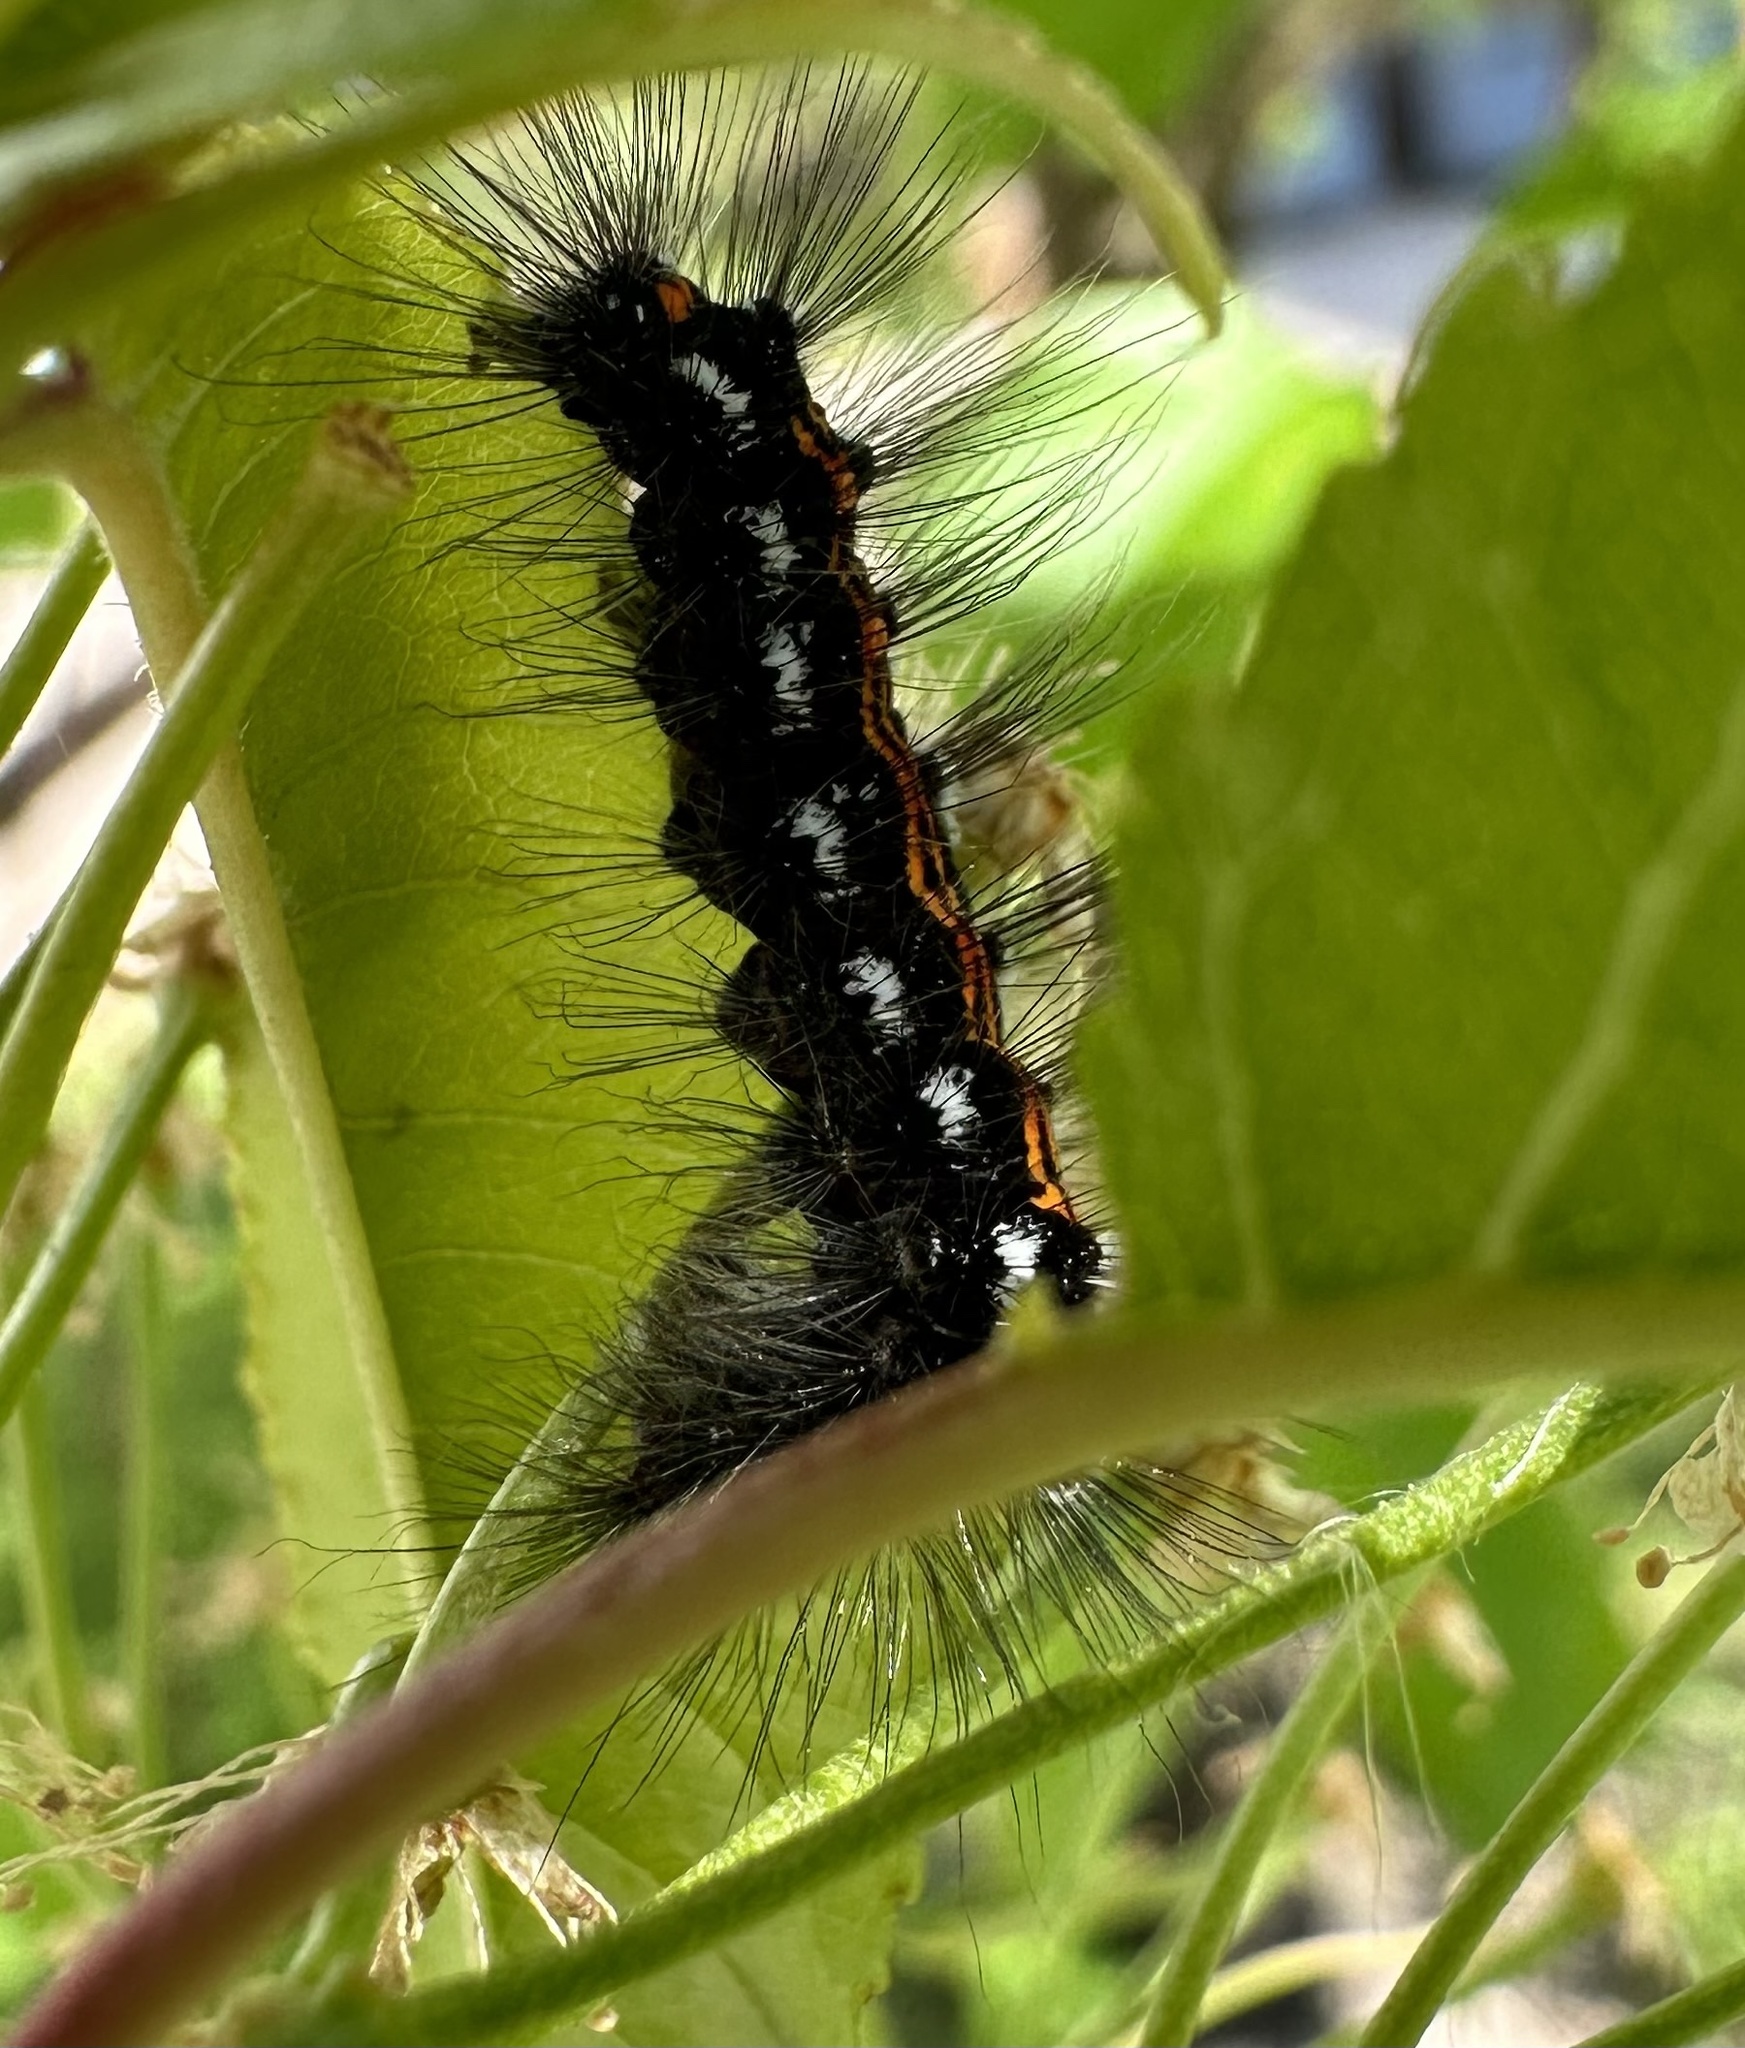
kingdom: Animalia
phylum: Arthropoda
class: Insecta
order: Lepidoptera
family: Erebidae
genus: Sphrageidus
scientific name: Sphrageidus similis
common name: Yellow-tail
